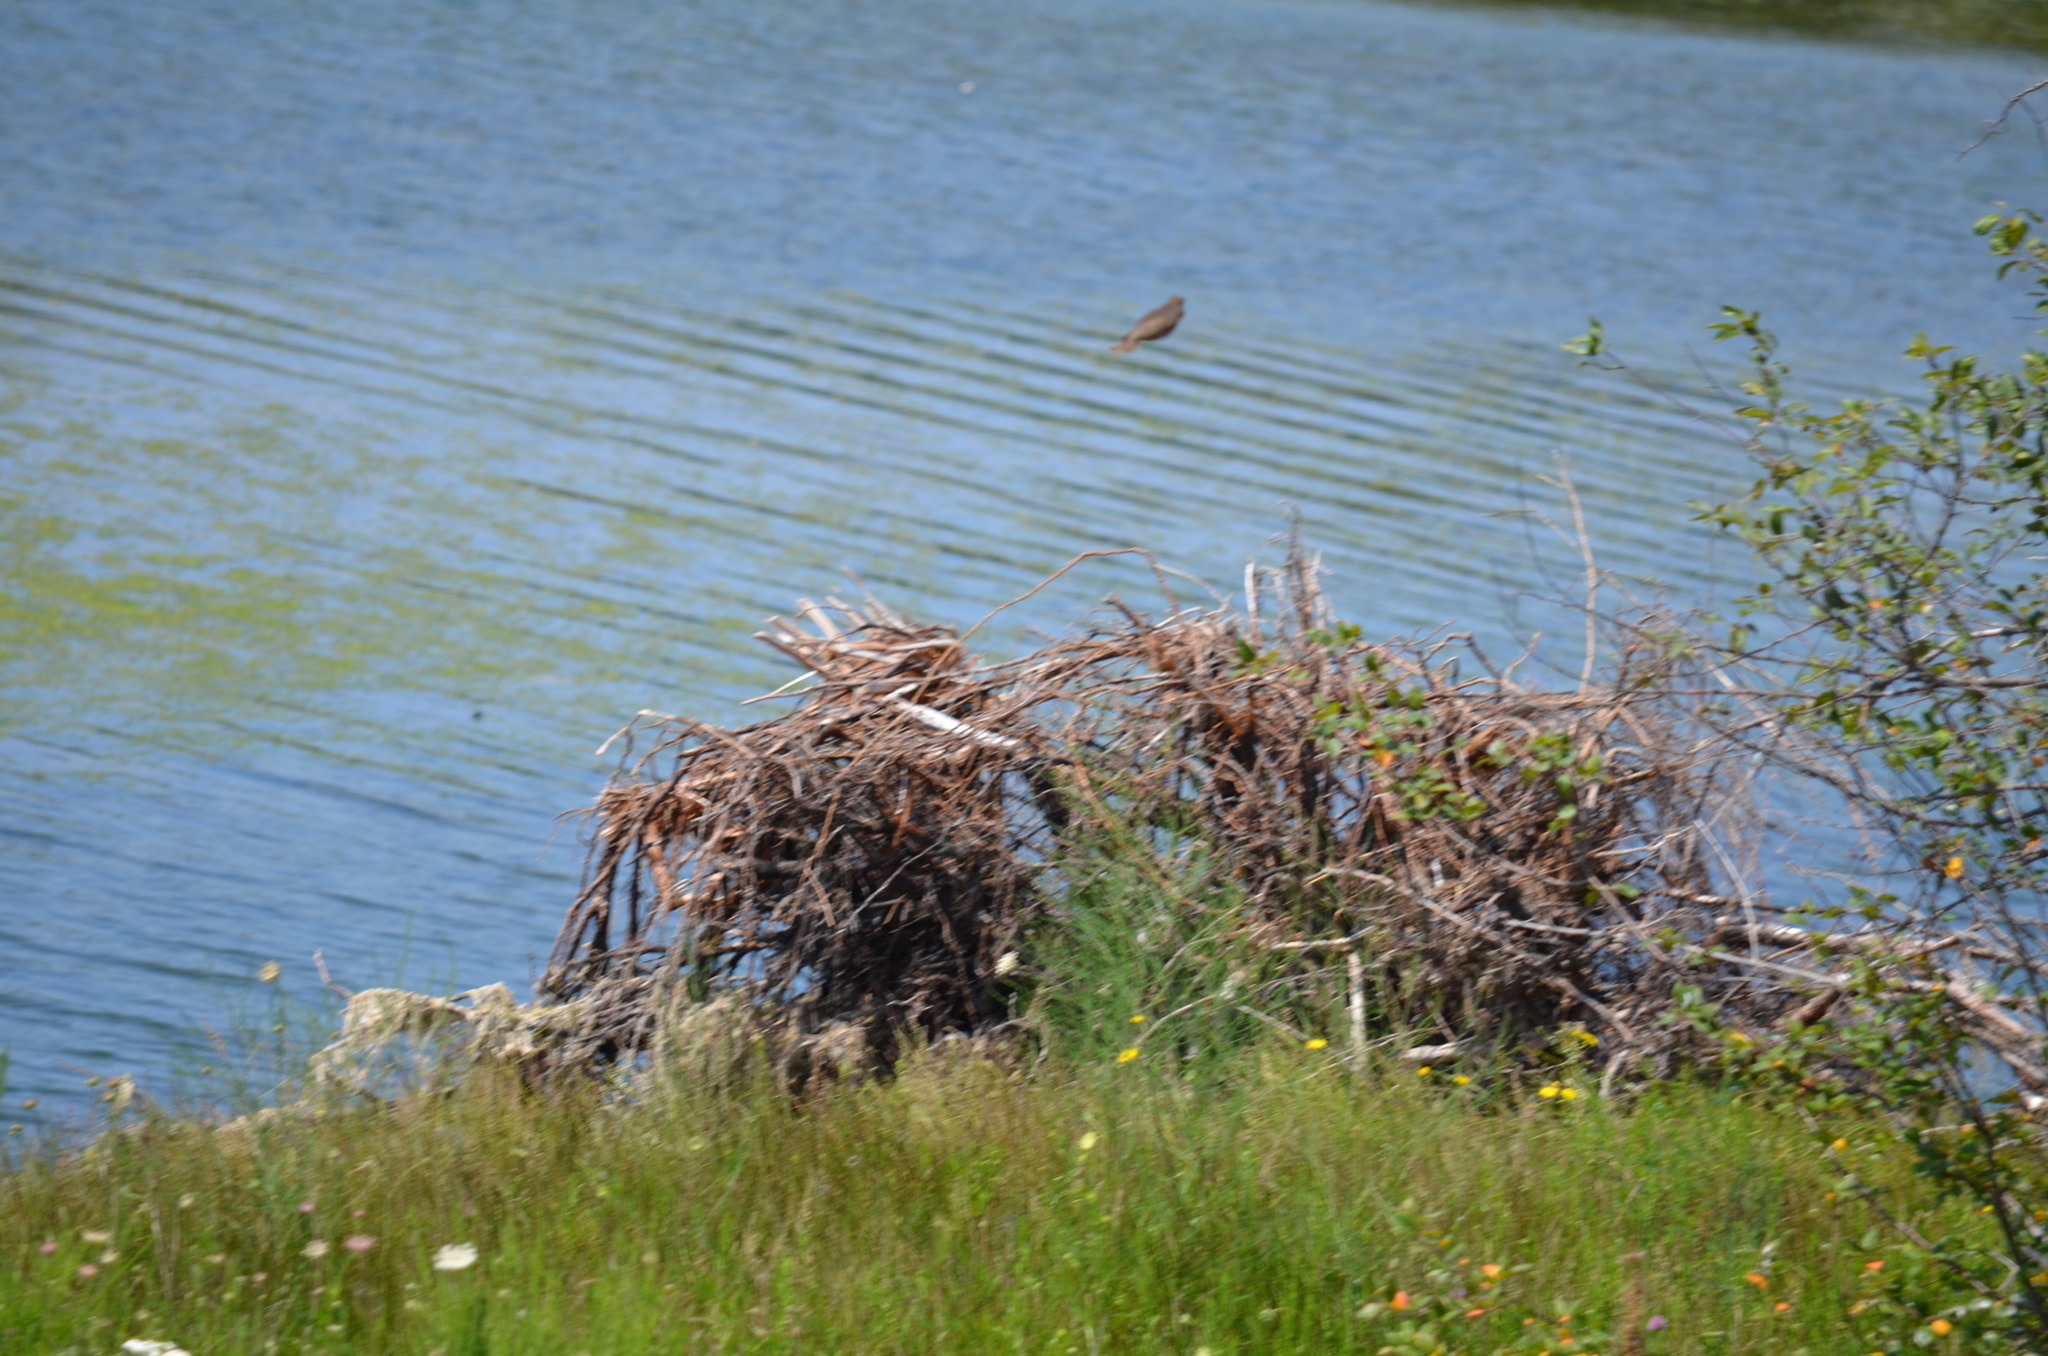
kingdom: Animalia
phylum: Chordata
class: Aves
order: Passeriformes
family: Sturnidae
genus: Sturnus
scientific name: Sturnus vulgaris
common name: Common starling
